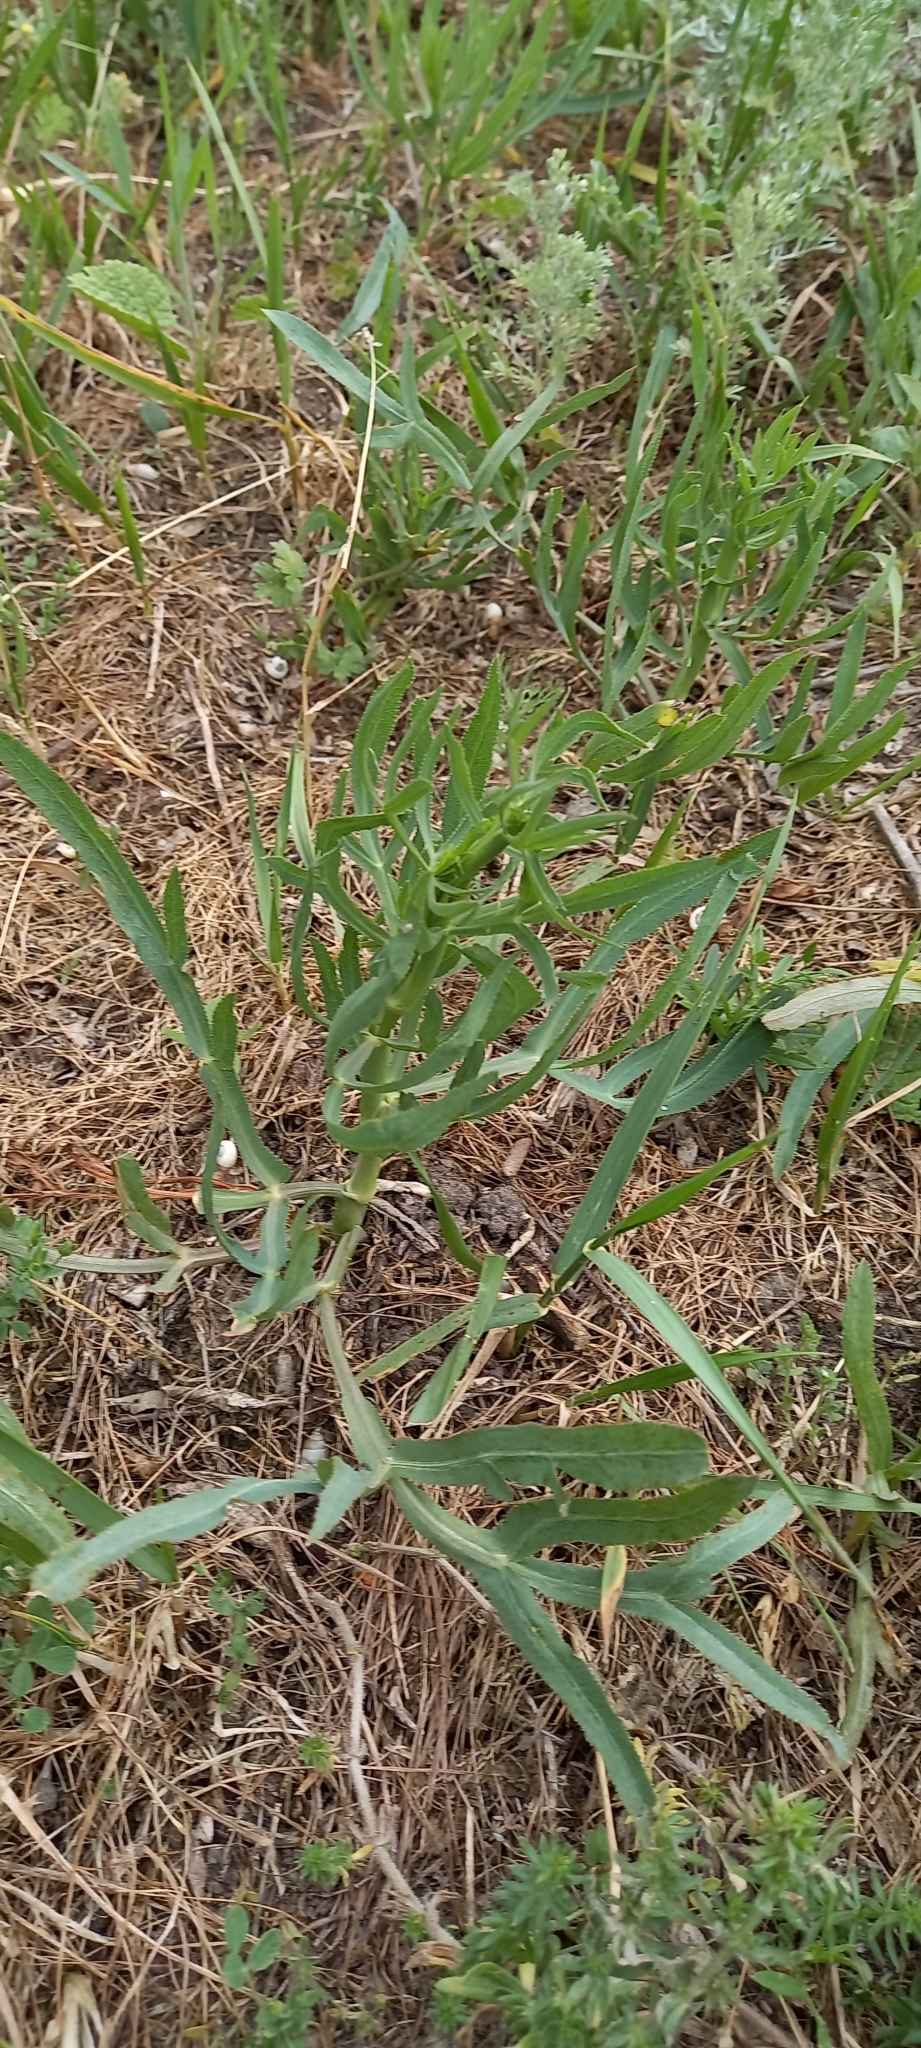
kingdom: Plantae
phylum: Tracheophyta
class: Magnoliopsida
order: Apiales
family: Apiaceae
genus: Falcaria
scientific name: Falcaria vulgaris
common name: Longleaf
